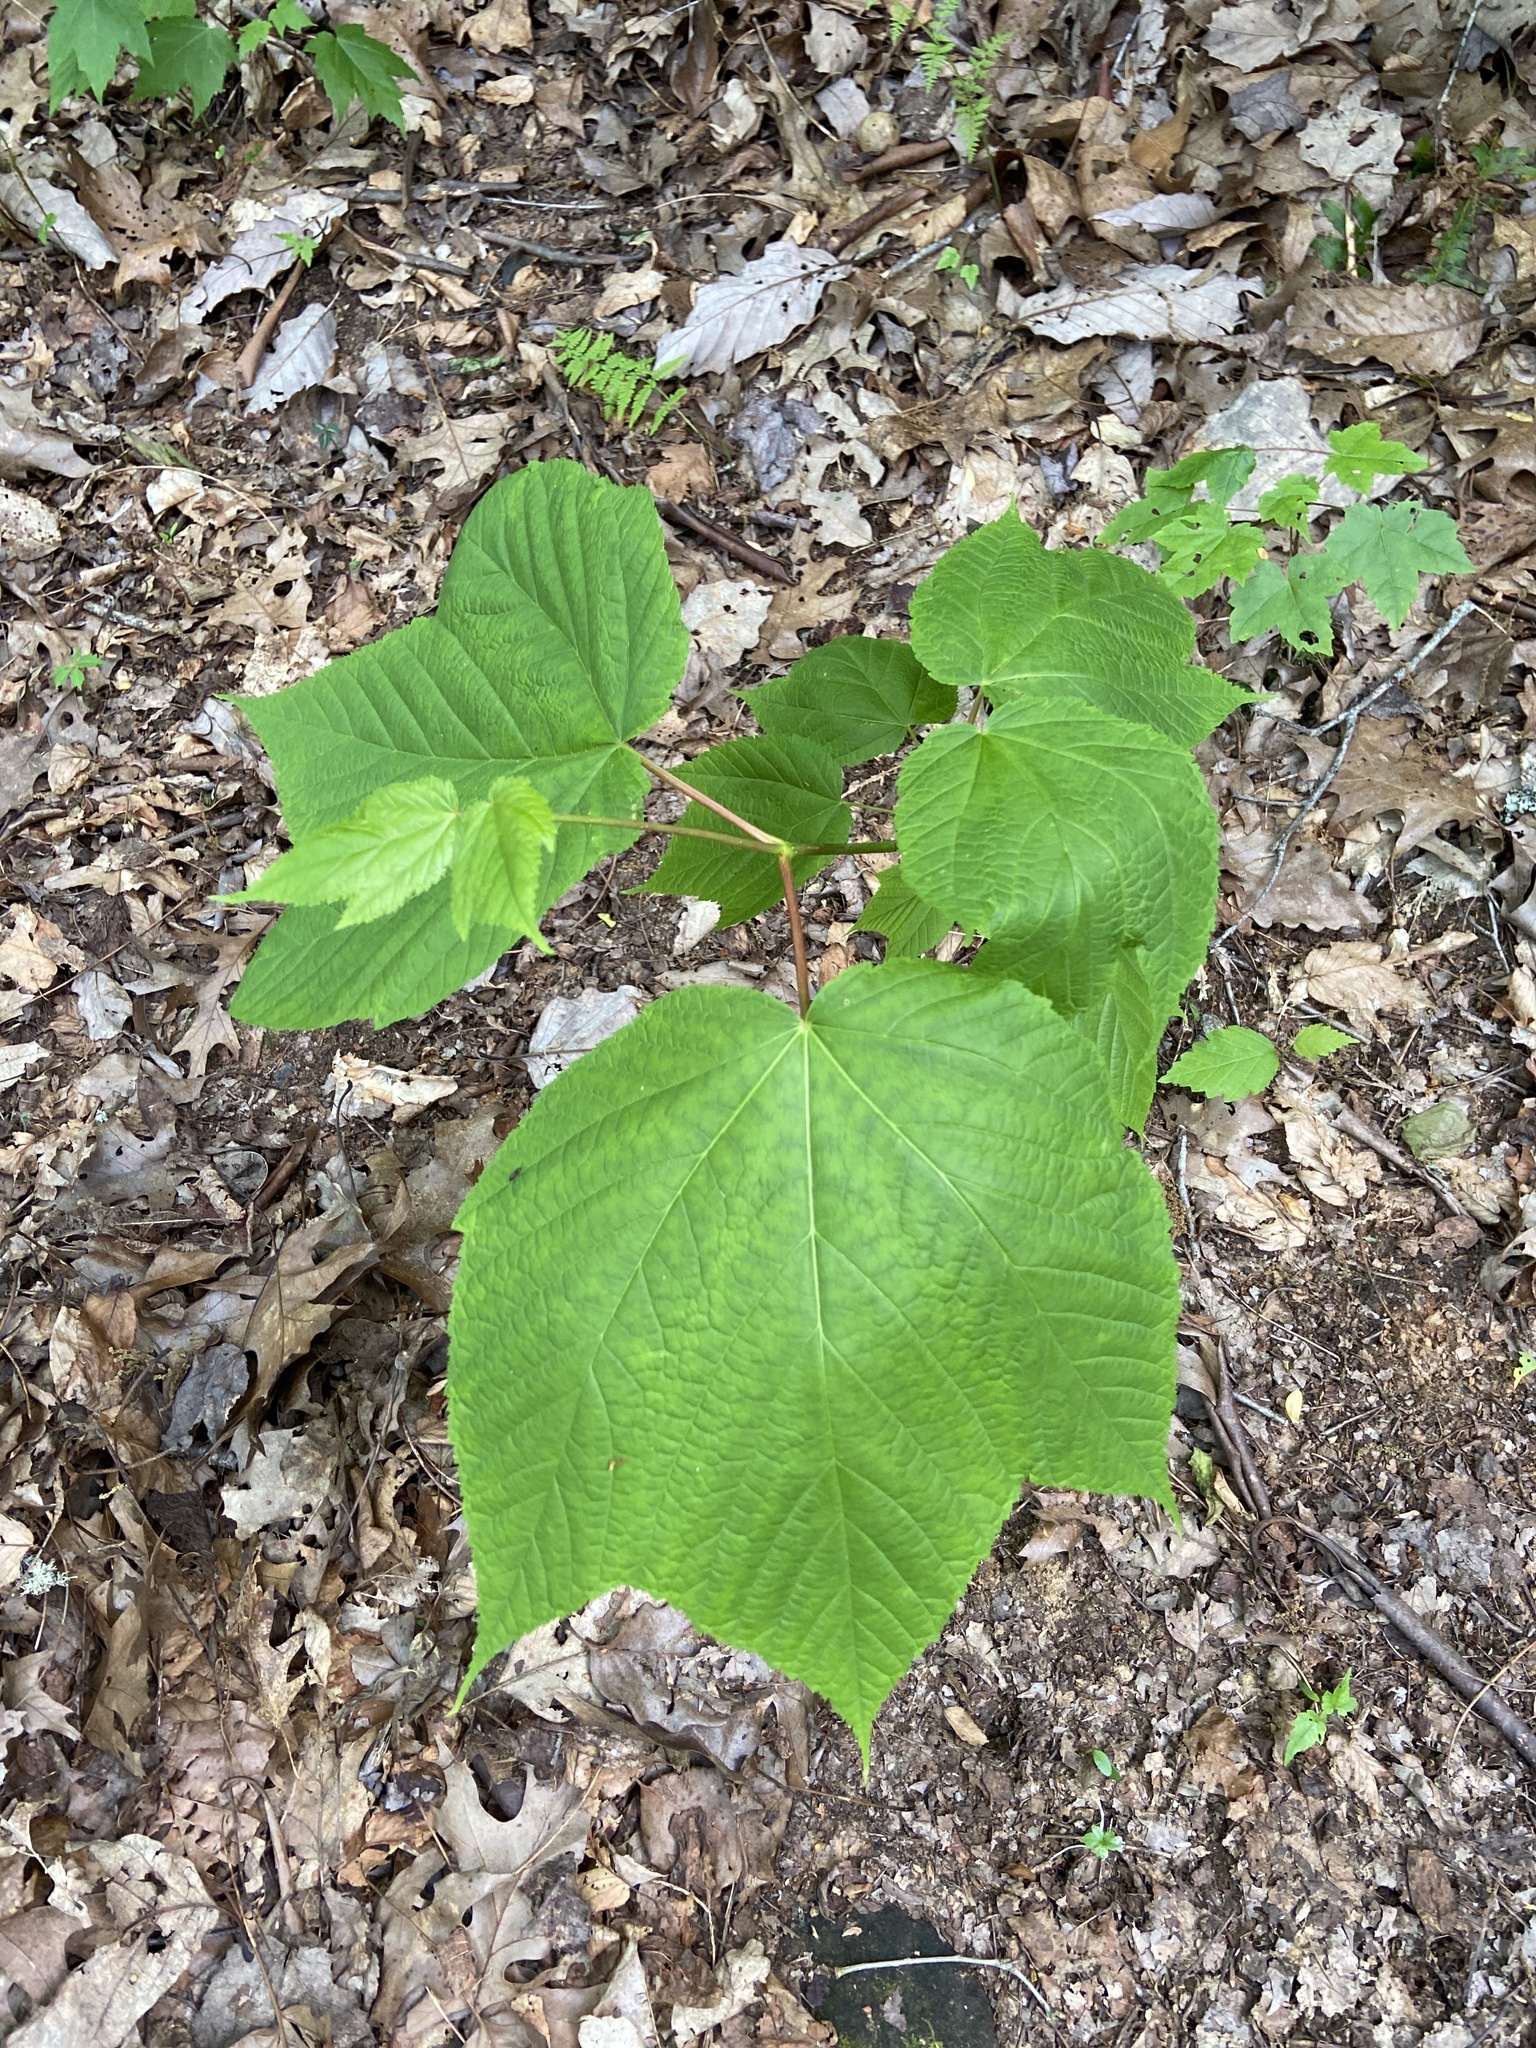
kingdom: Plantae
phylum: Tracheophyta
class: Magnoliopsida
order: Sapindales
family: Sapindaceae
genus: Acer
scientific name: Acer pensylvanicum
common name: Moosewood
